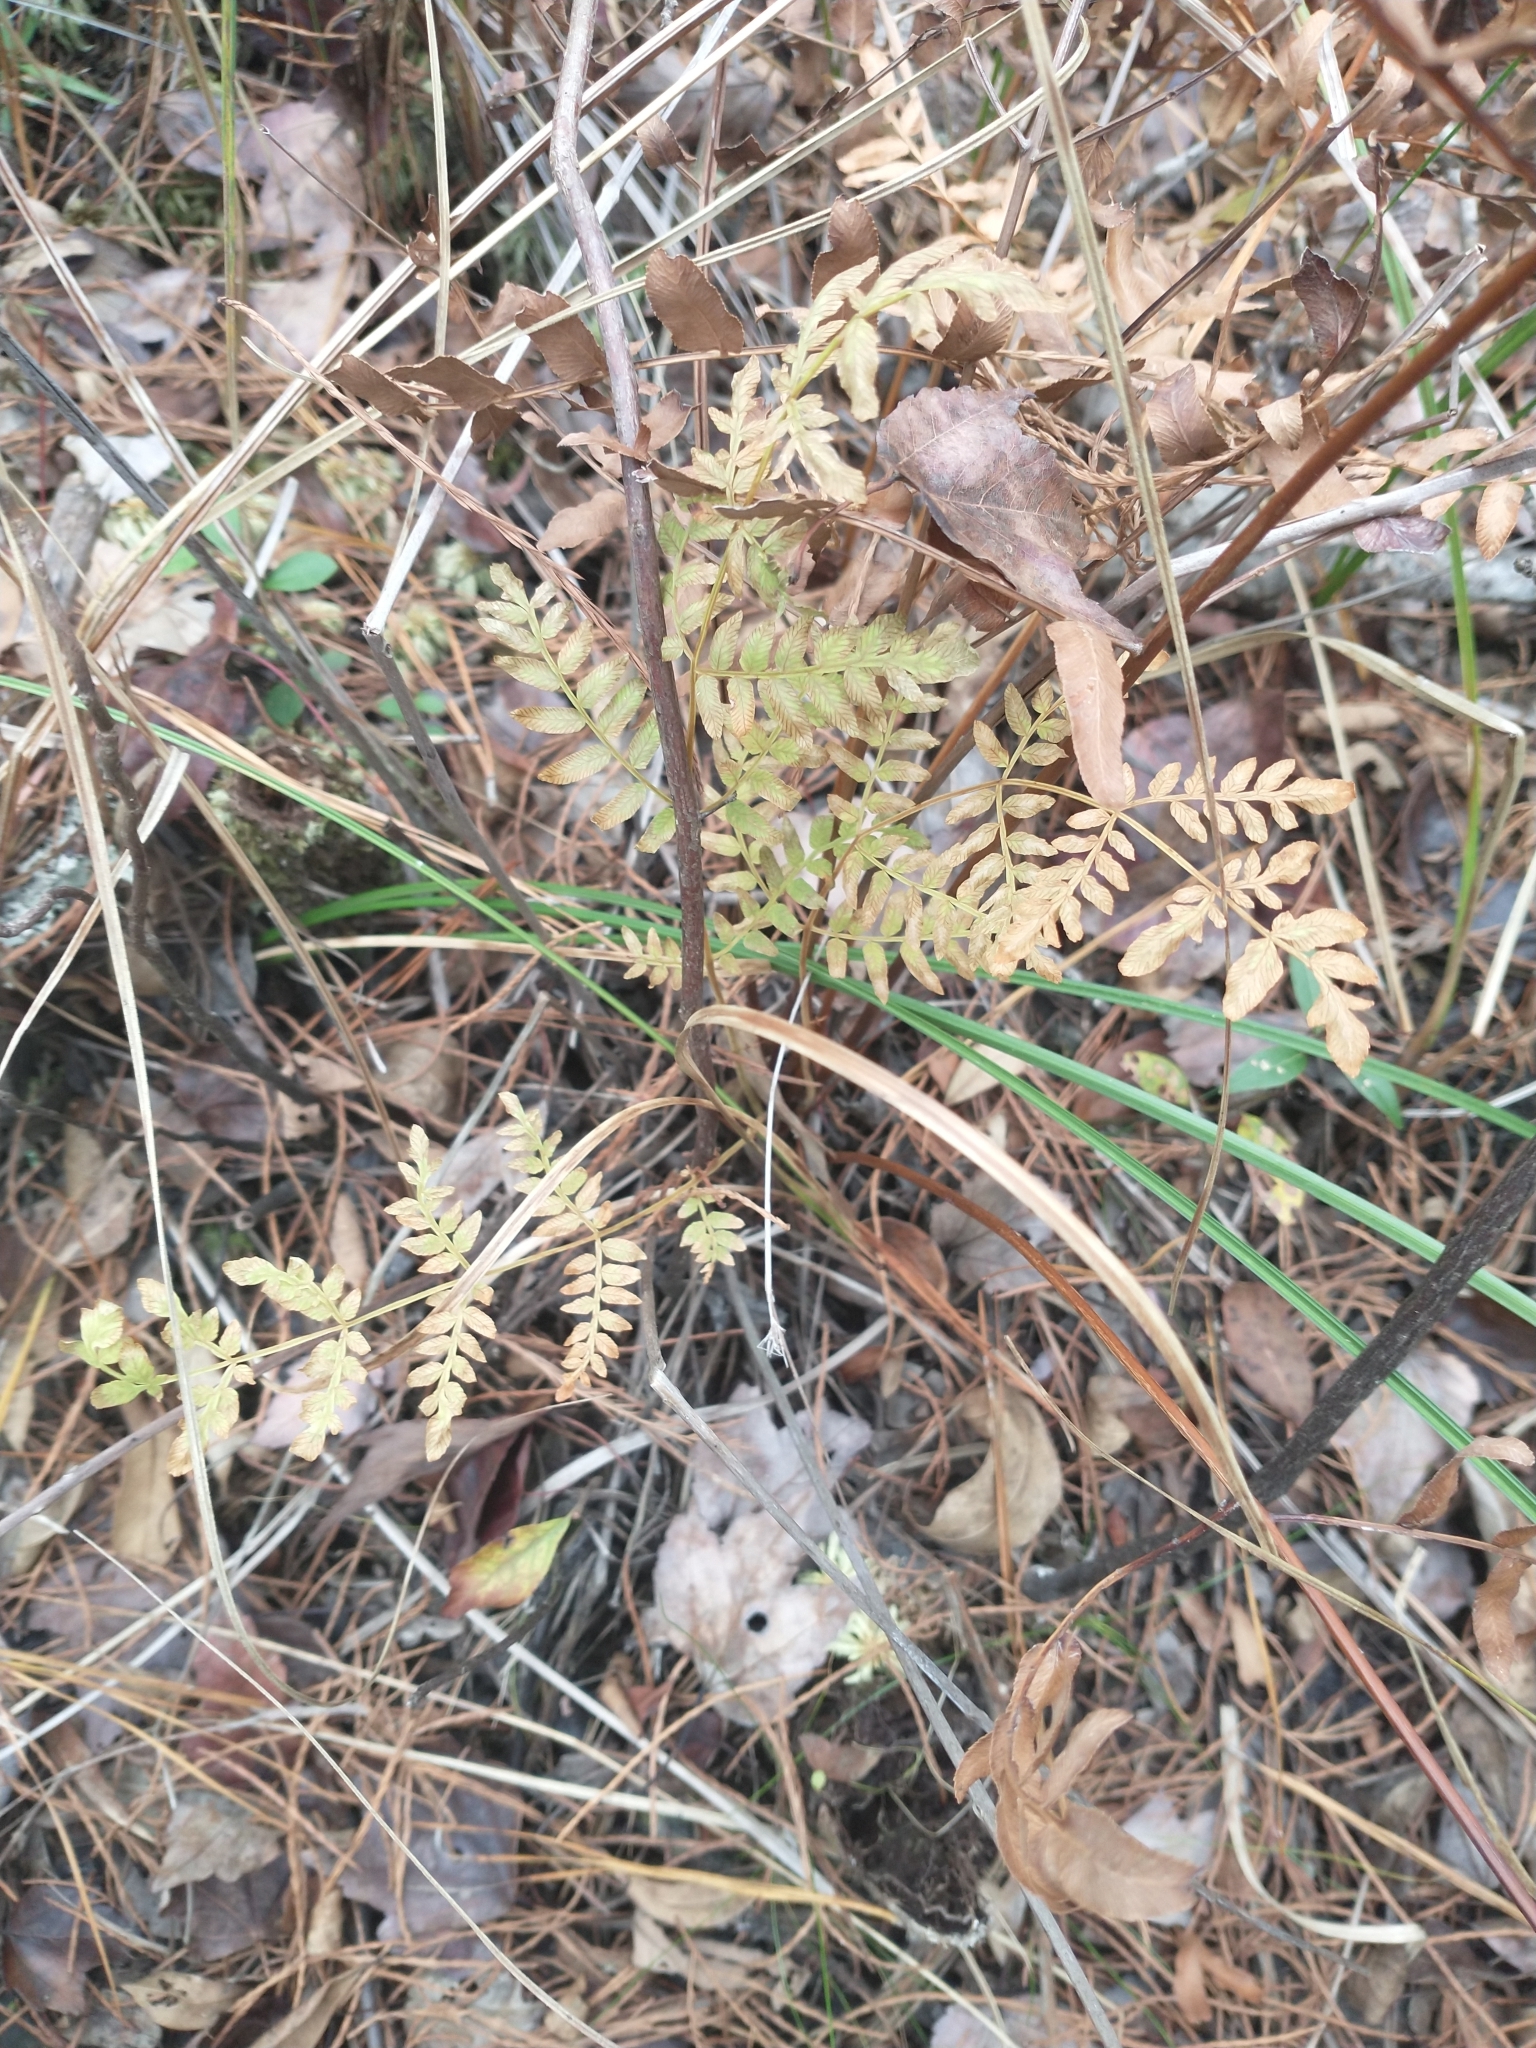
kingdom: Plantae
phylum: Tracheophyta
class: Polypodiopsida
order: Osmundales
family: Osmundaceae
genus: Osmunda
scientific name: Osmunda spectabilis
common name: American royal fern
